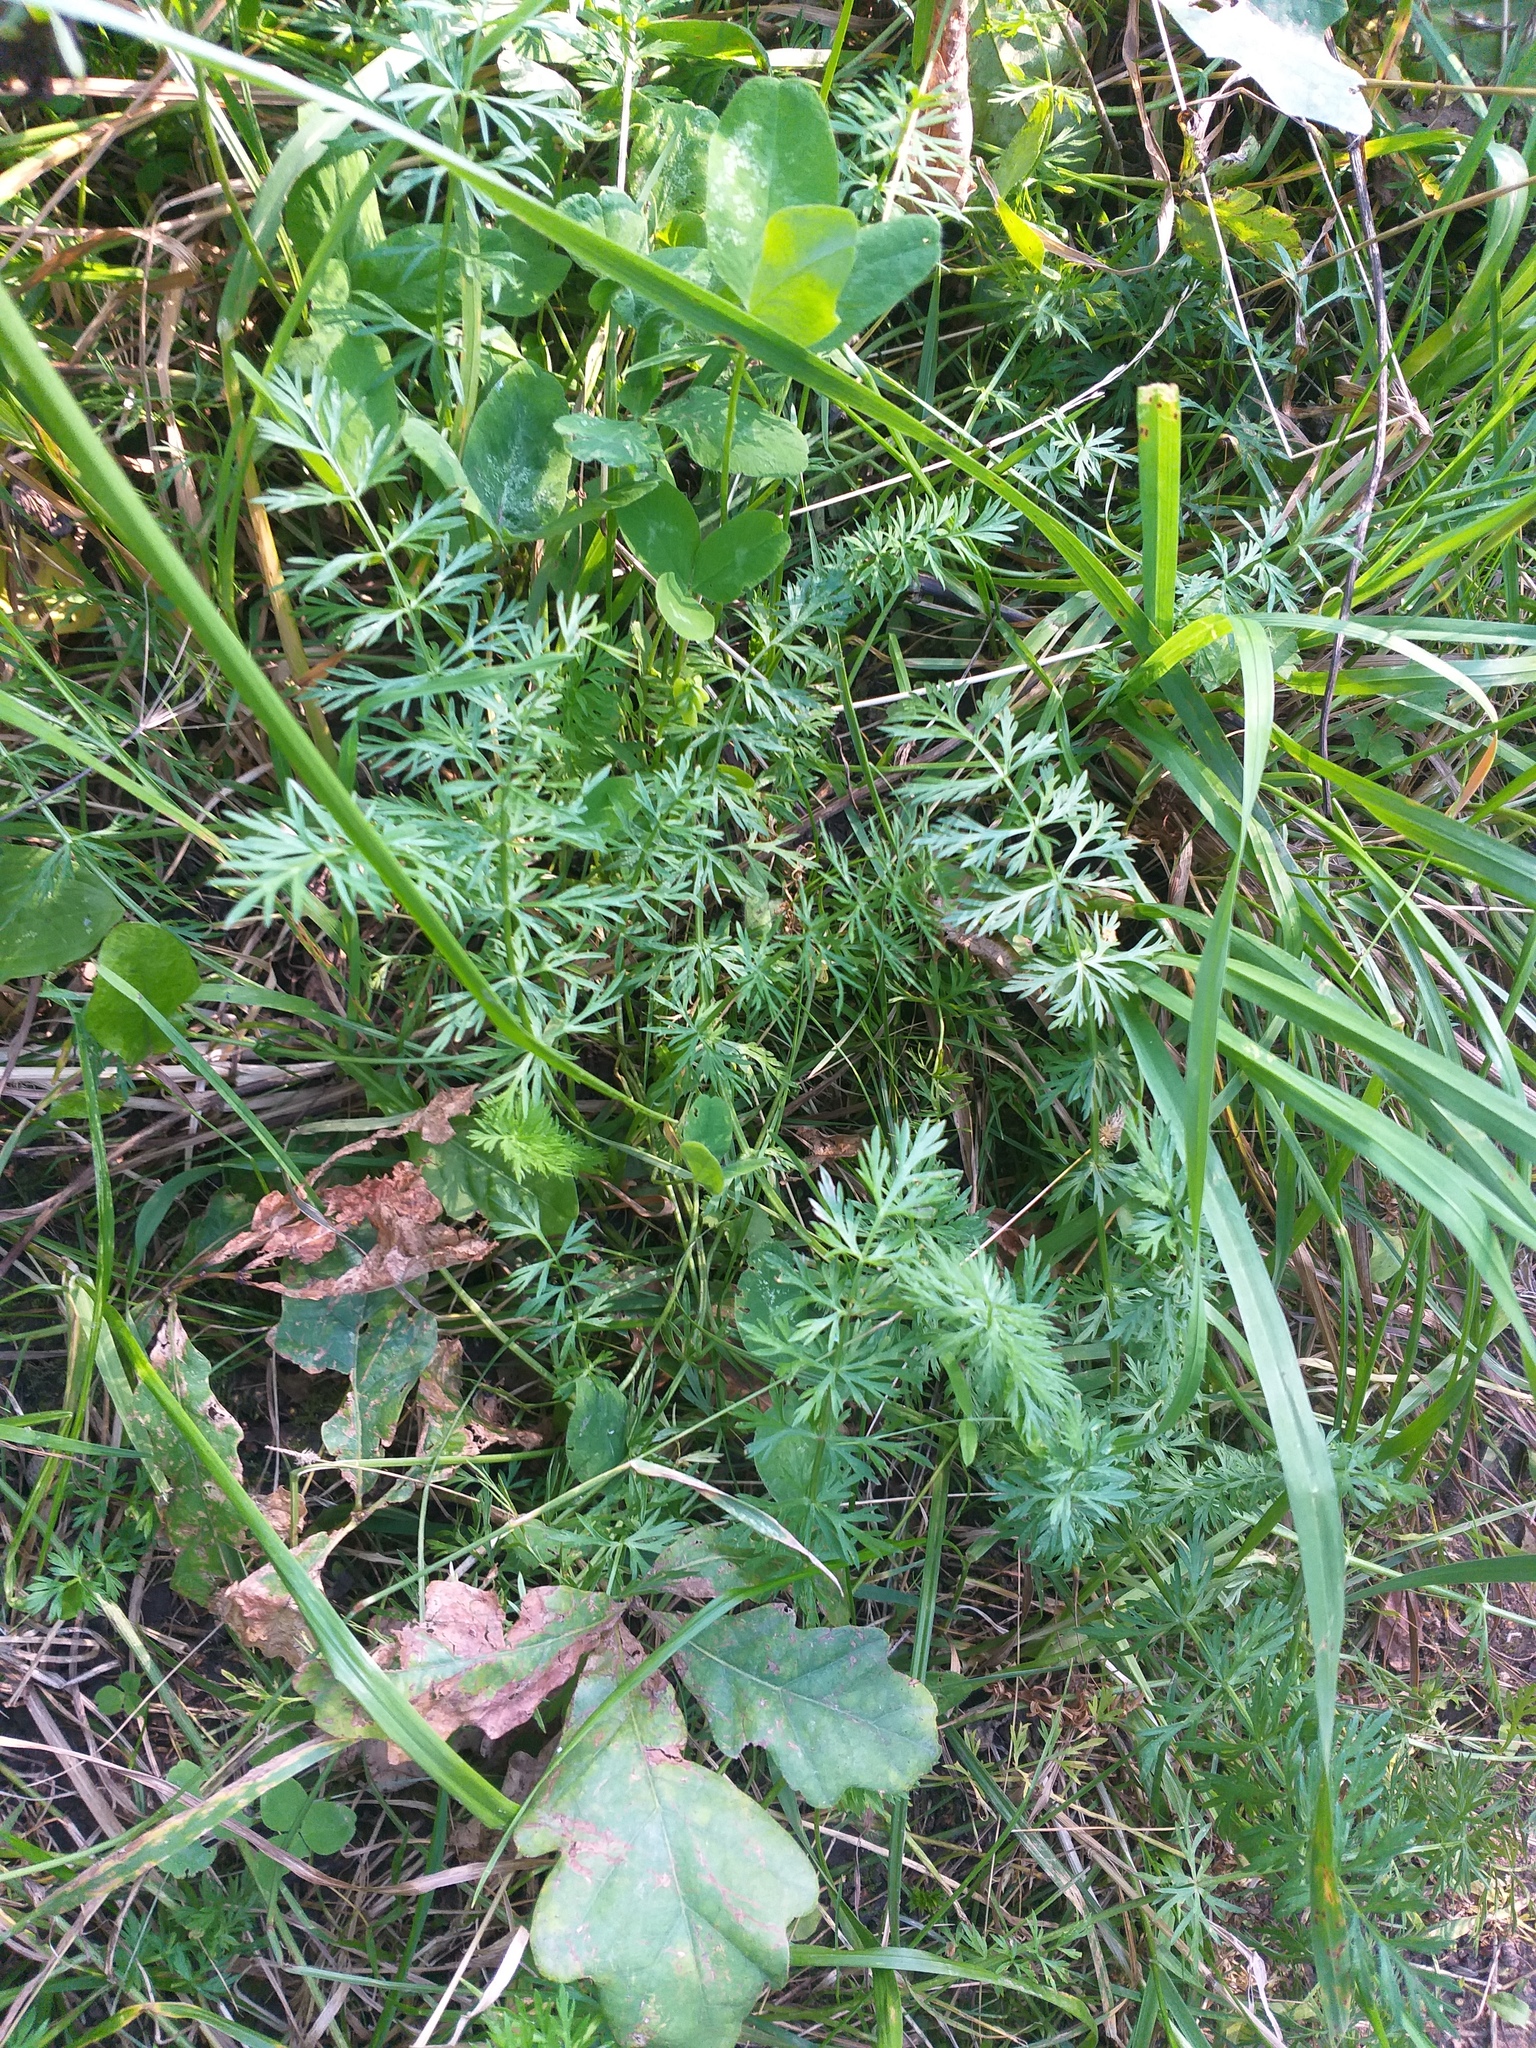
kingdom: Plantae
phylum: Tracheophyta
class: Magnoliopsida
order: Apiales
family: Apiaceae
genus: Carum
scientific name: Carum carvi
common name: Caraway
